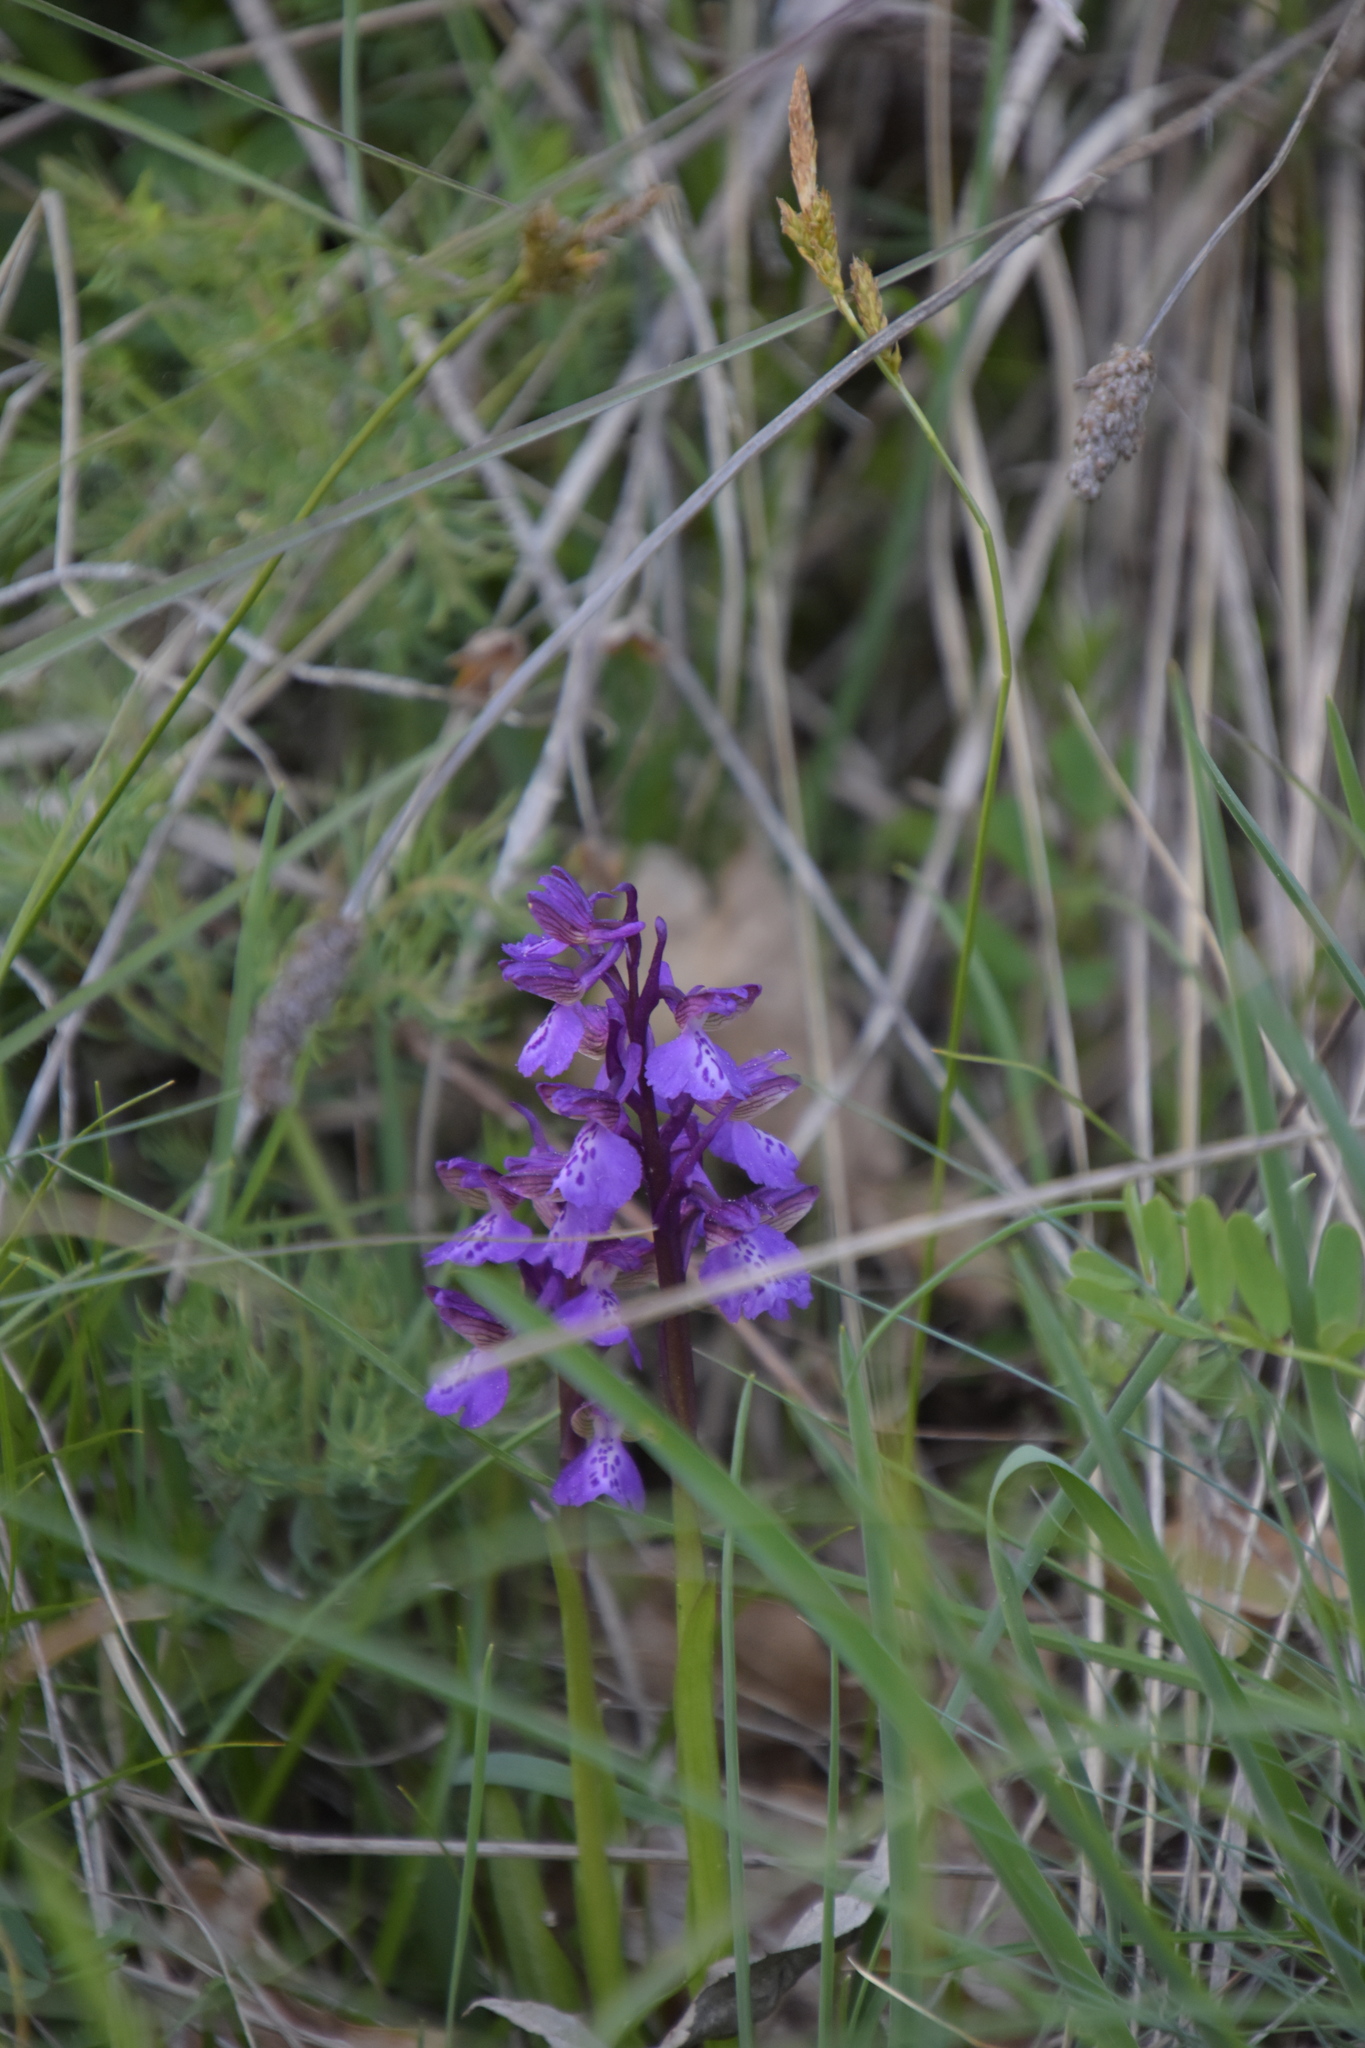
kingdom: Plantae
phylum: Tracheophyta
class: Liliopsida
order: Asparagales
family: Orchidaceae
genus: Anacamptis
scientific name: Anacamptis morio
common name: Green-winged orchid
